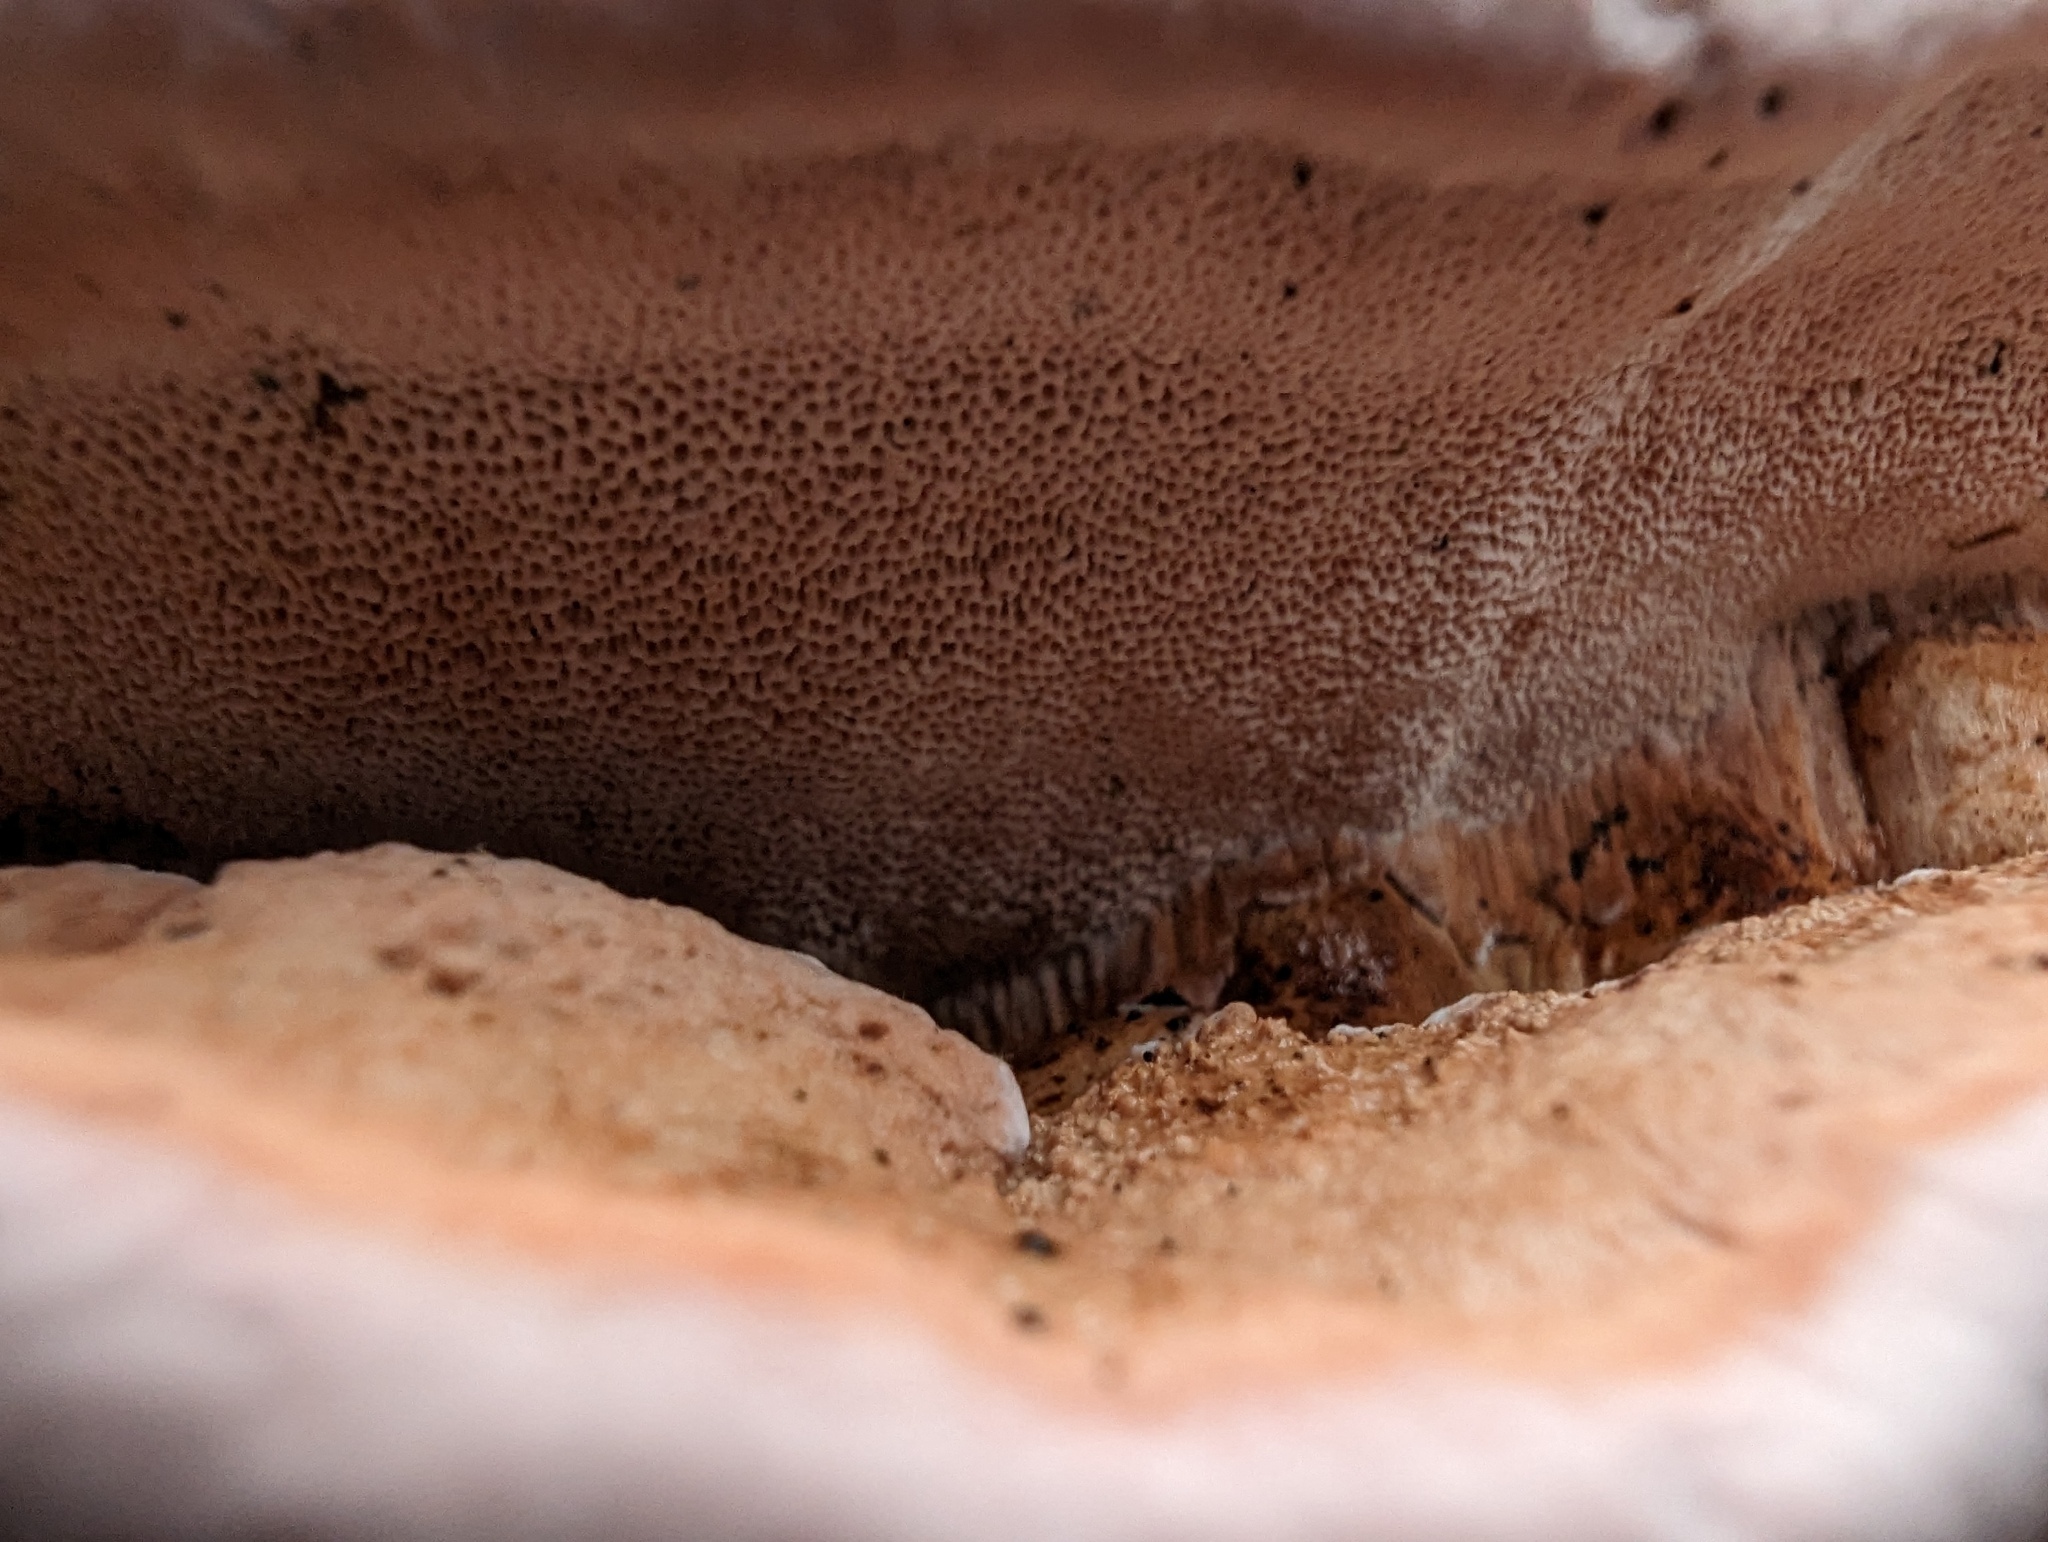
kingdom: Fungi
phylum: Basidiomycota
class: Agaricomycetes
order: Polyporales
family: Fomitopsidaceae
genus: Rhodofomes
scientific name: Rhodofomes cajanderi
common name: Rosy conk
